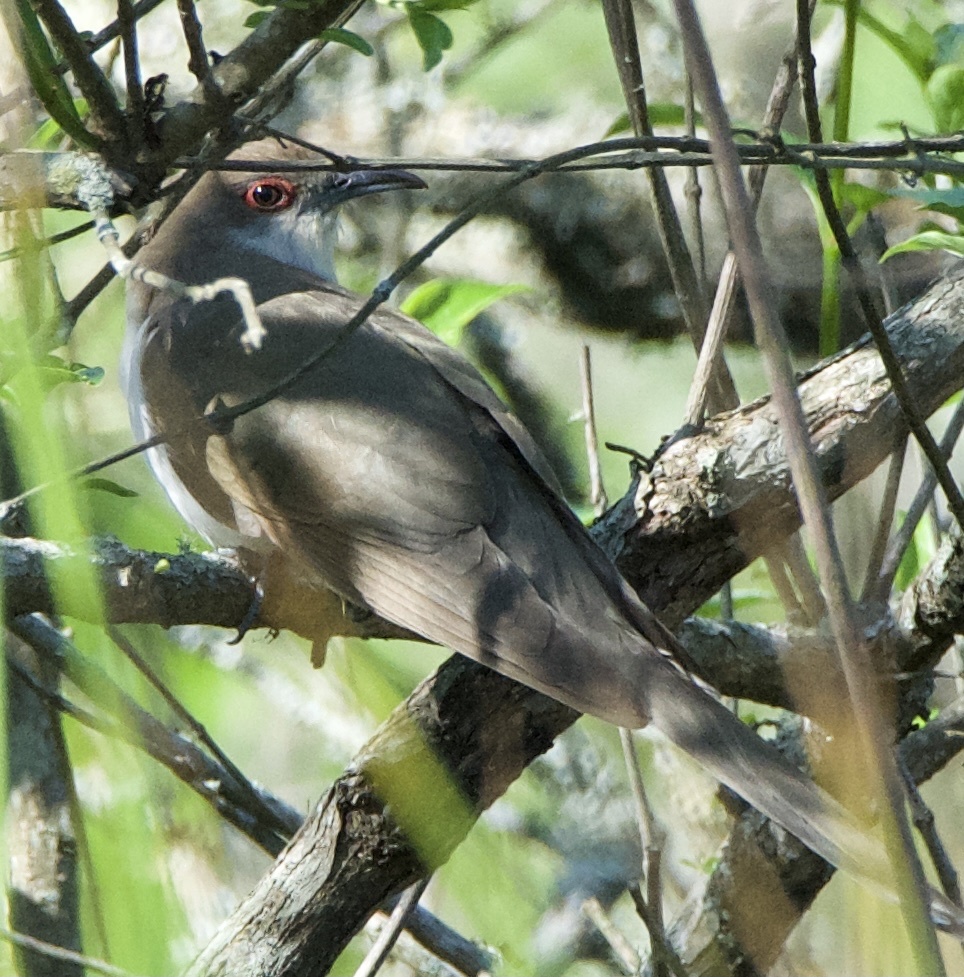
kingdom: Animalia
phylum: Chordata
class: Aves
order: Cuculiformes
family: Cuculidae
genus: Coccyzus
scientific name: Coccyzus erythropthalmus
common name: Black-billed cuckoo
